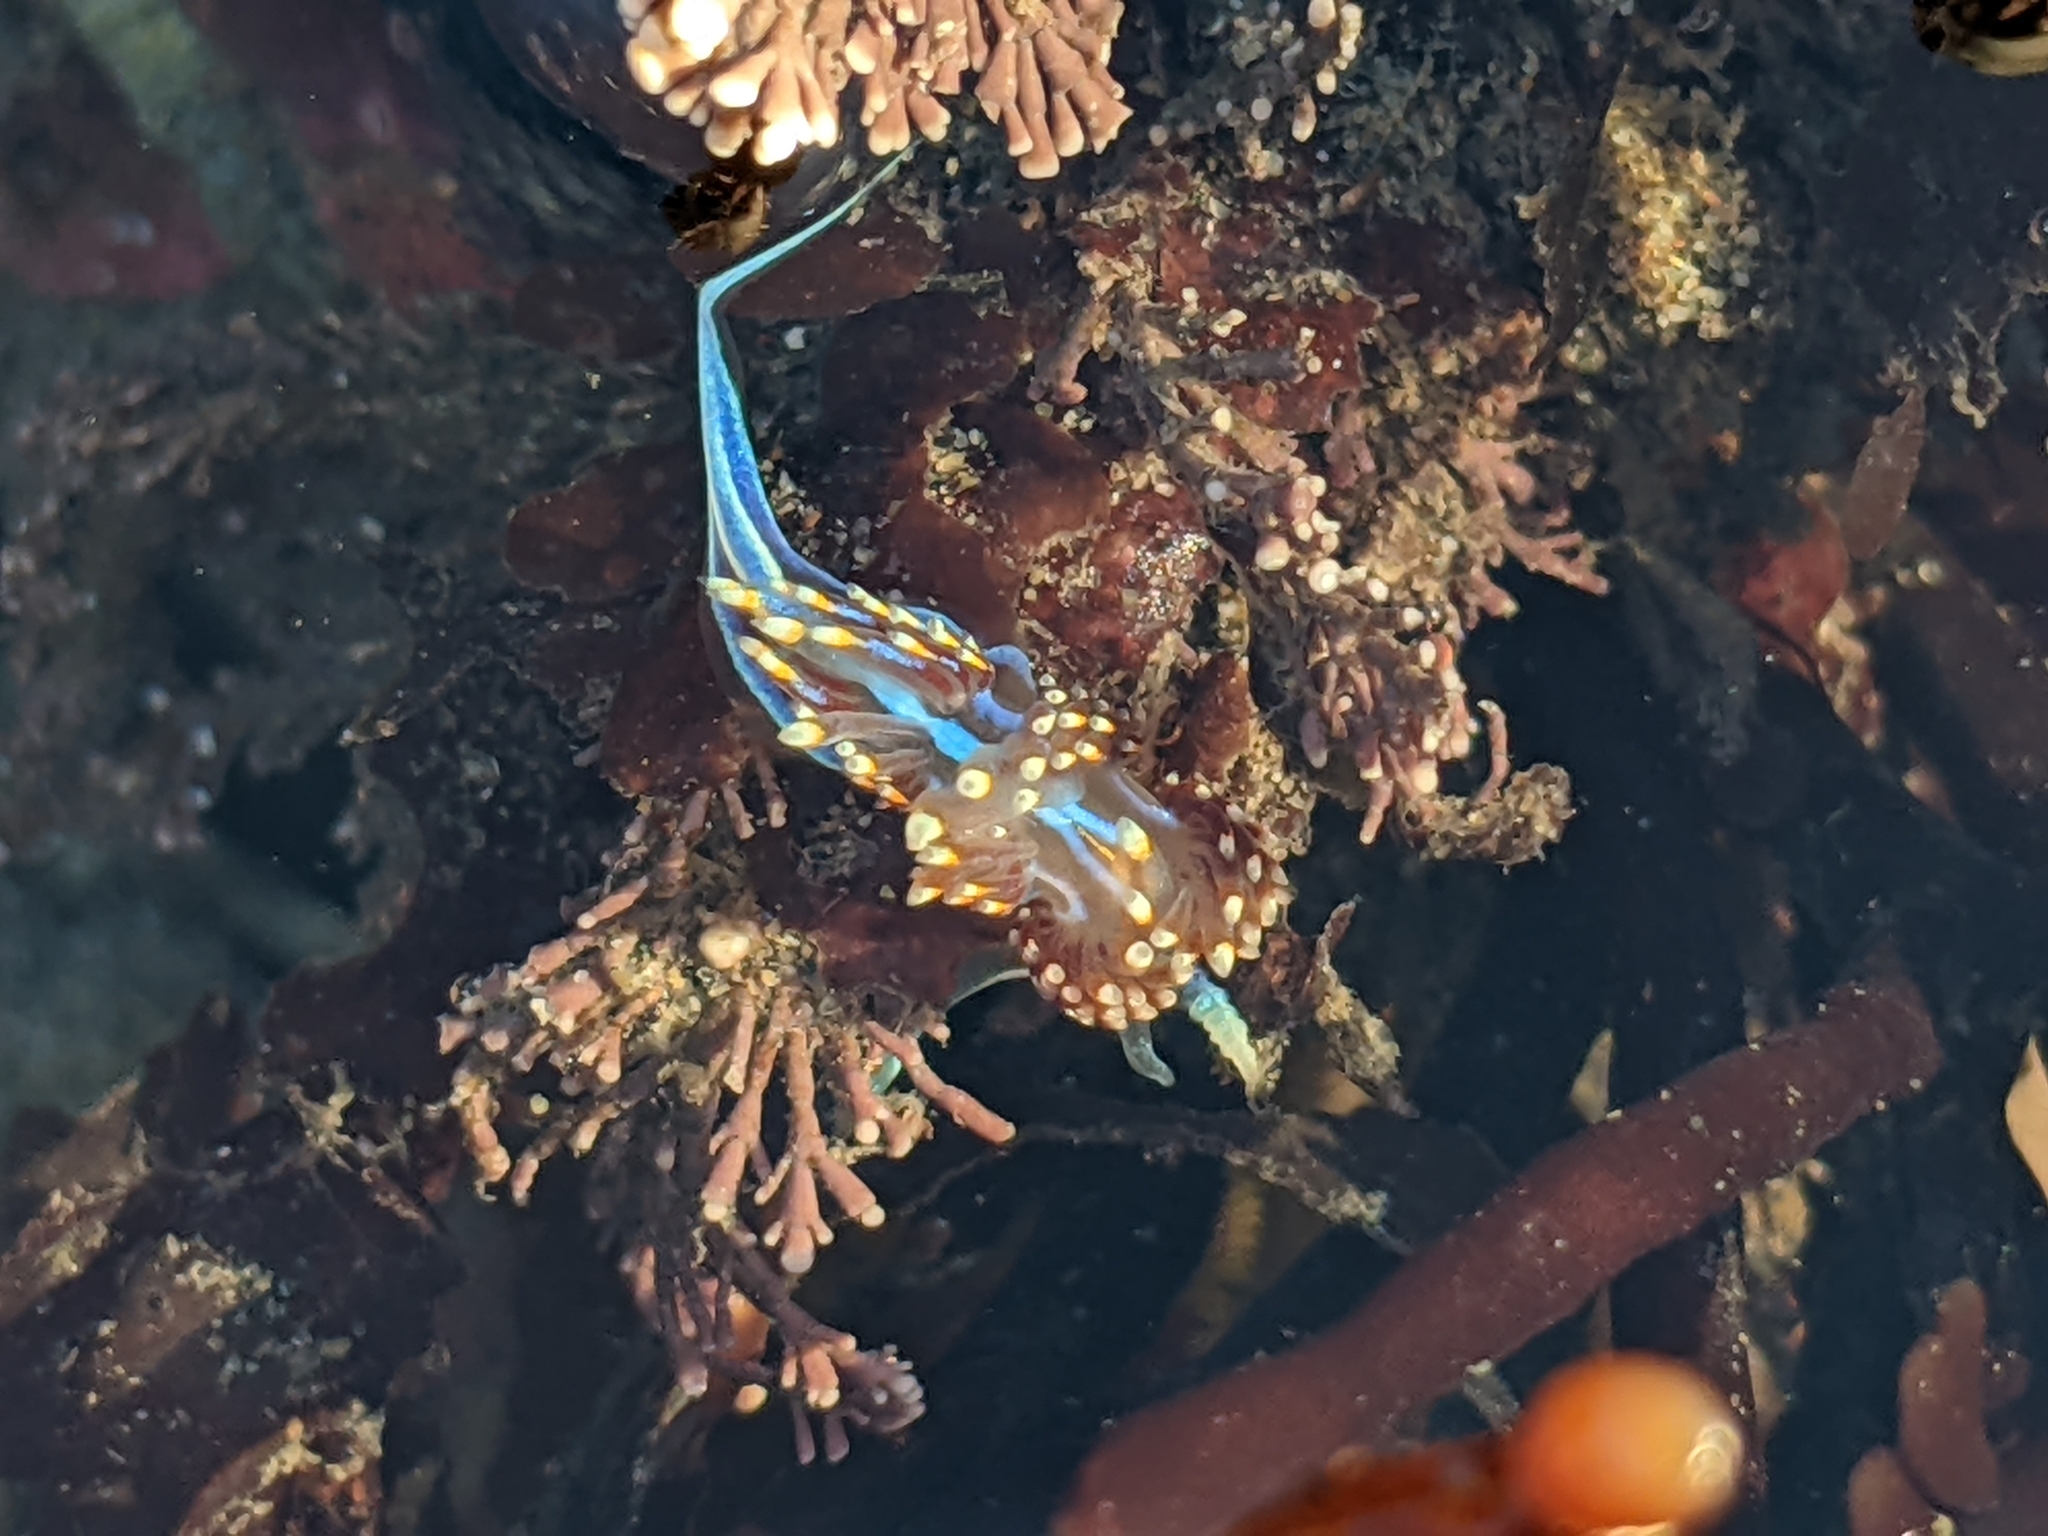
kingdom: Animalia
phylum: Mollusca
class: Gastropoda
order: Nudibranchia
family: Myrrhinidae
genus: Hermissenda
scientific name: Hermissenda opalescens
